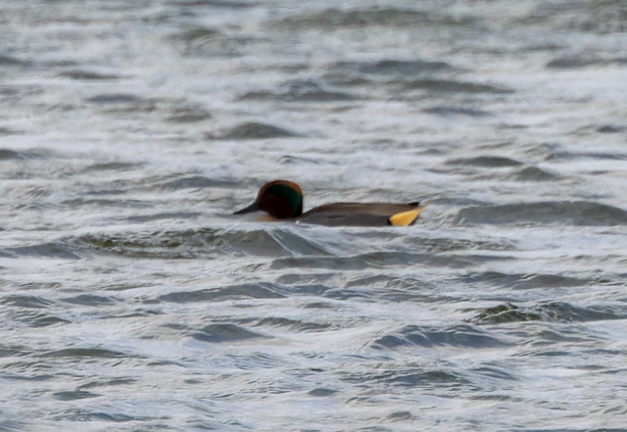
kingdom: Animalia
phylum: Chordata
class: Aves
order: Anseriformes
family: Anatidae
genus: Anas
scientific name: Anas carolinensis
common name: Green-winged teal
